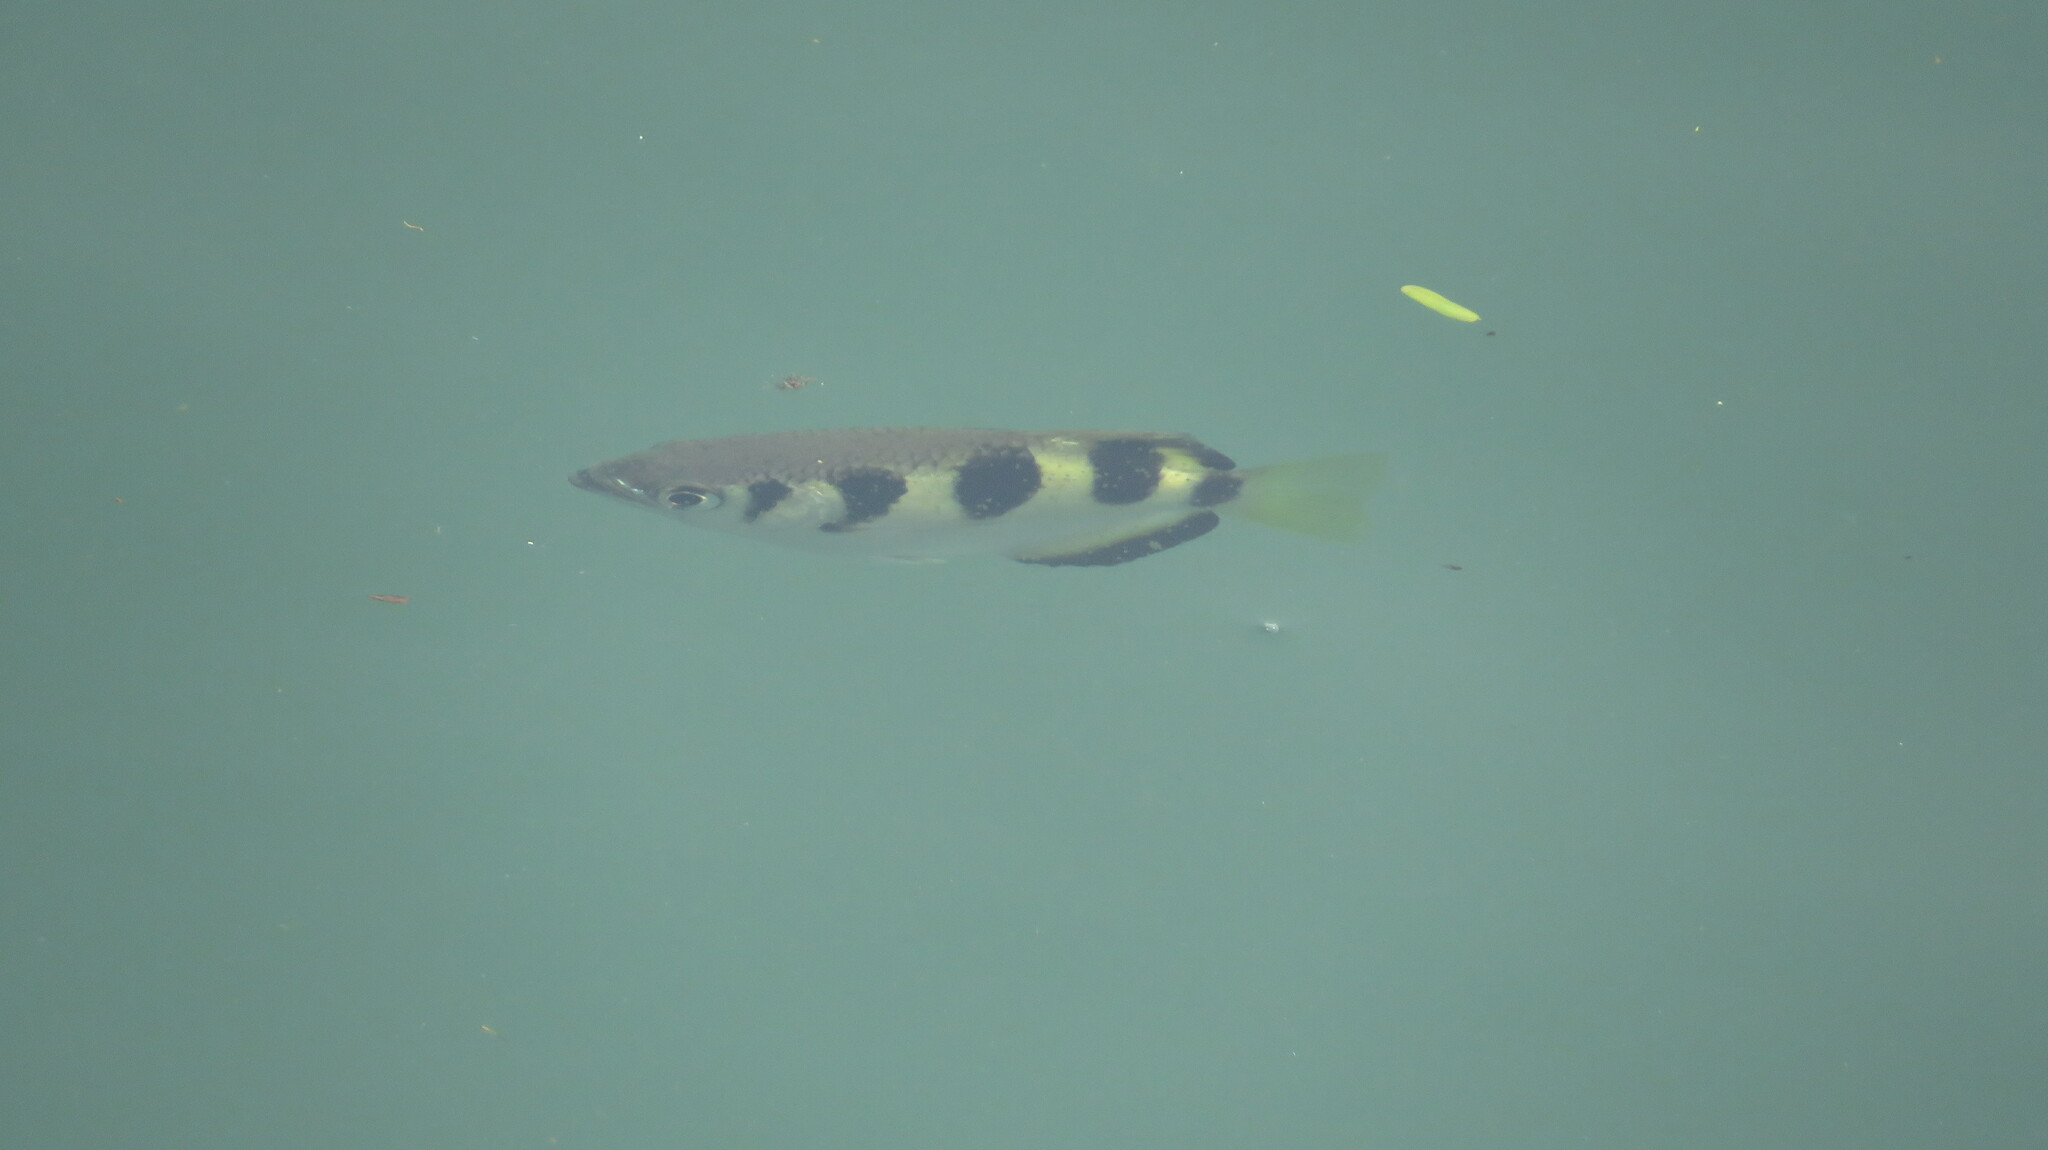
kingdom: Animalia
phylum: Chordata
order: Perciformes
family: Toxotidae
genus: Toxotes
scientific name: Toxotes jaculatrix
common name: Banded archerfish
